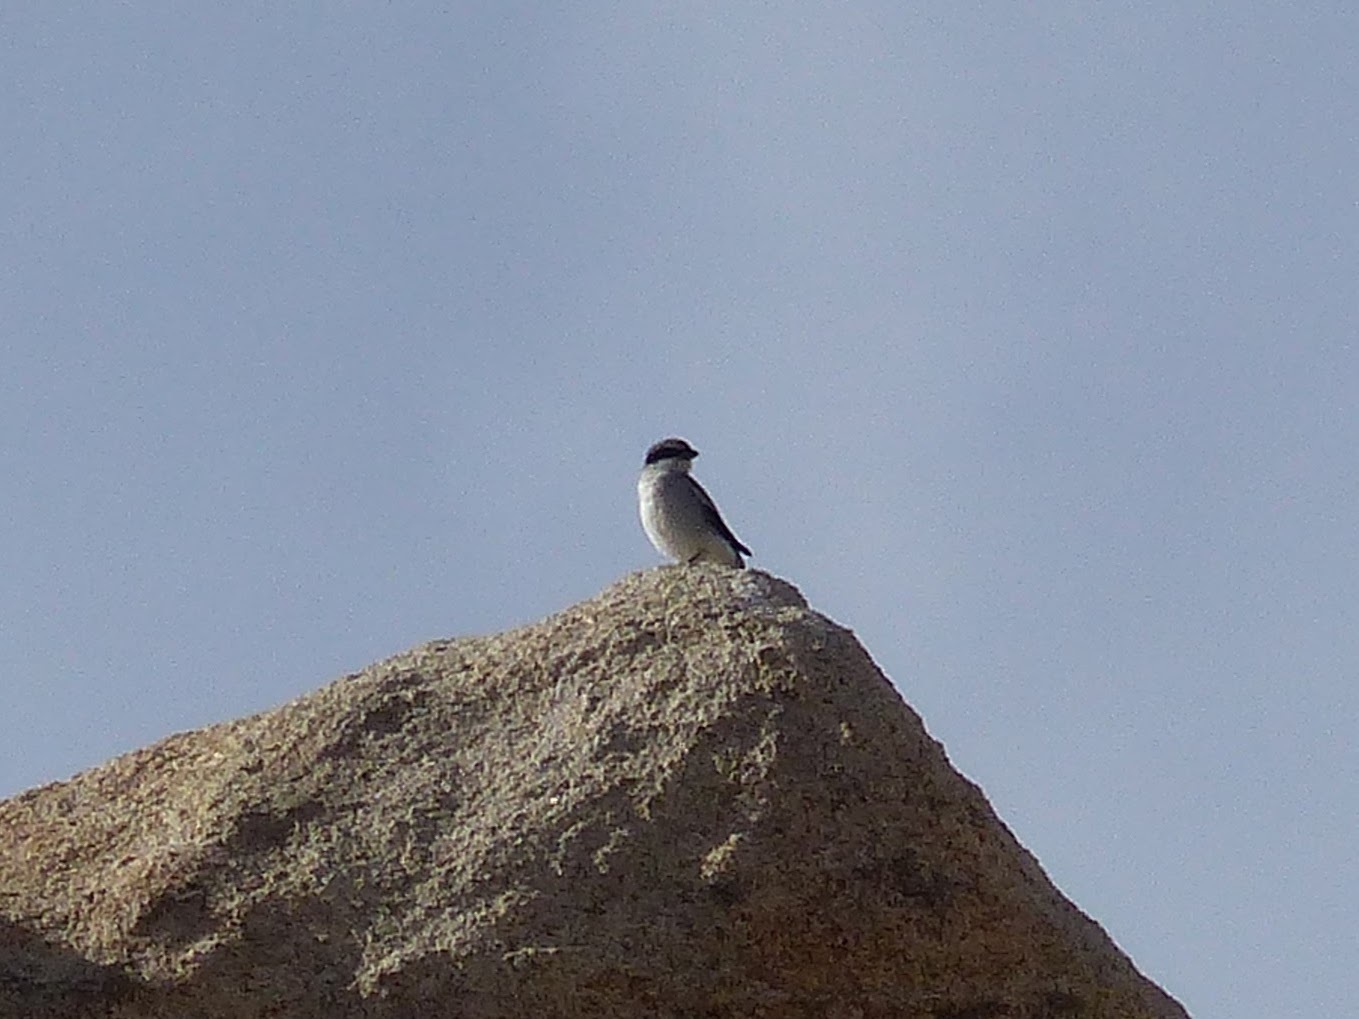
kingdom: Animalia
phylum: Chordata
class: Aves
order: Passeriformes
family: Laniidae
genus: Lanius
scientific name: Lanius ludovicianus
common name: Loggerhead shrike
